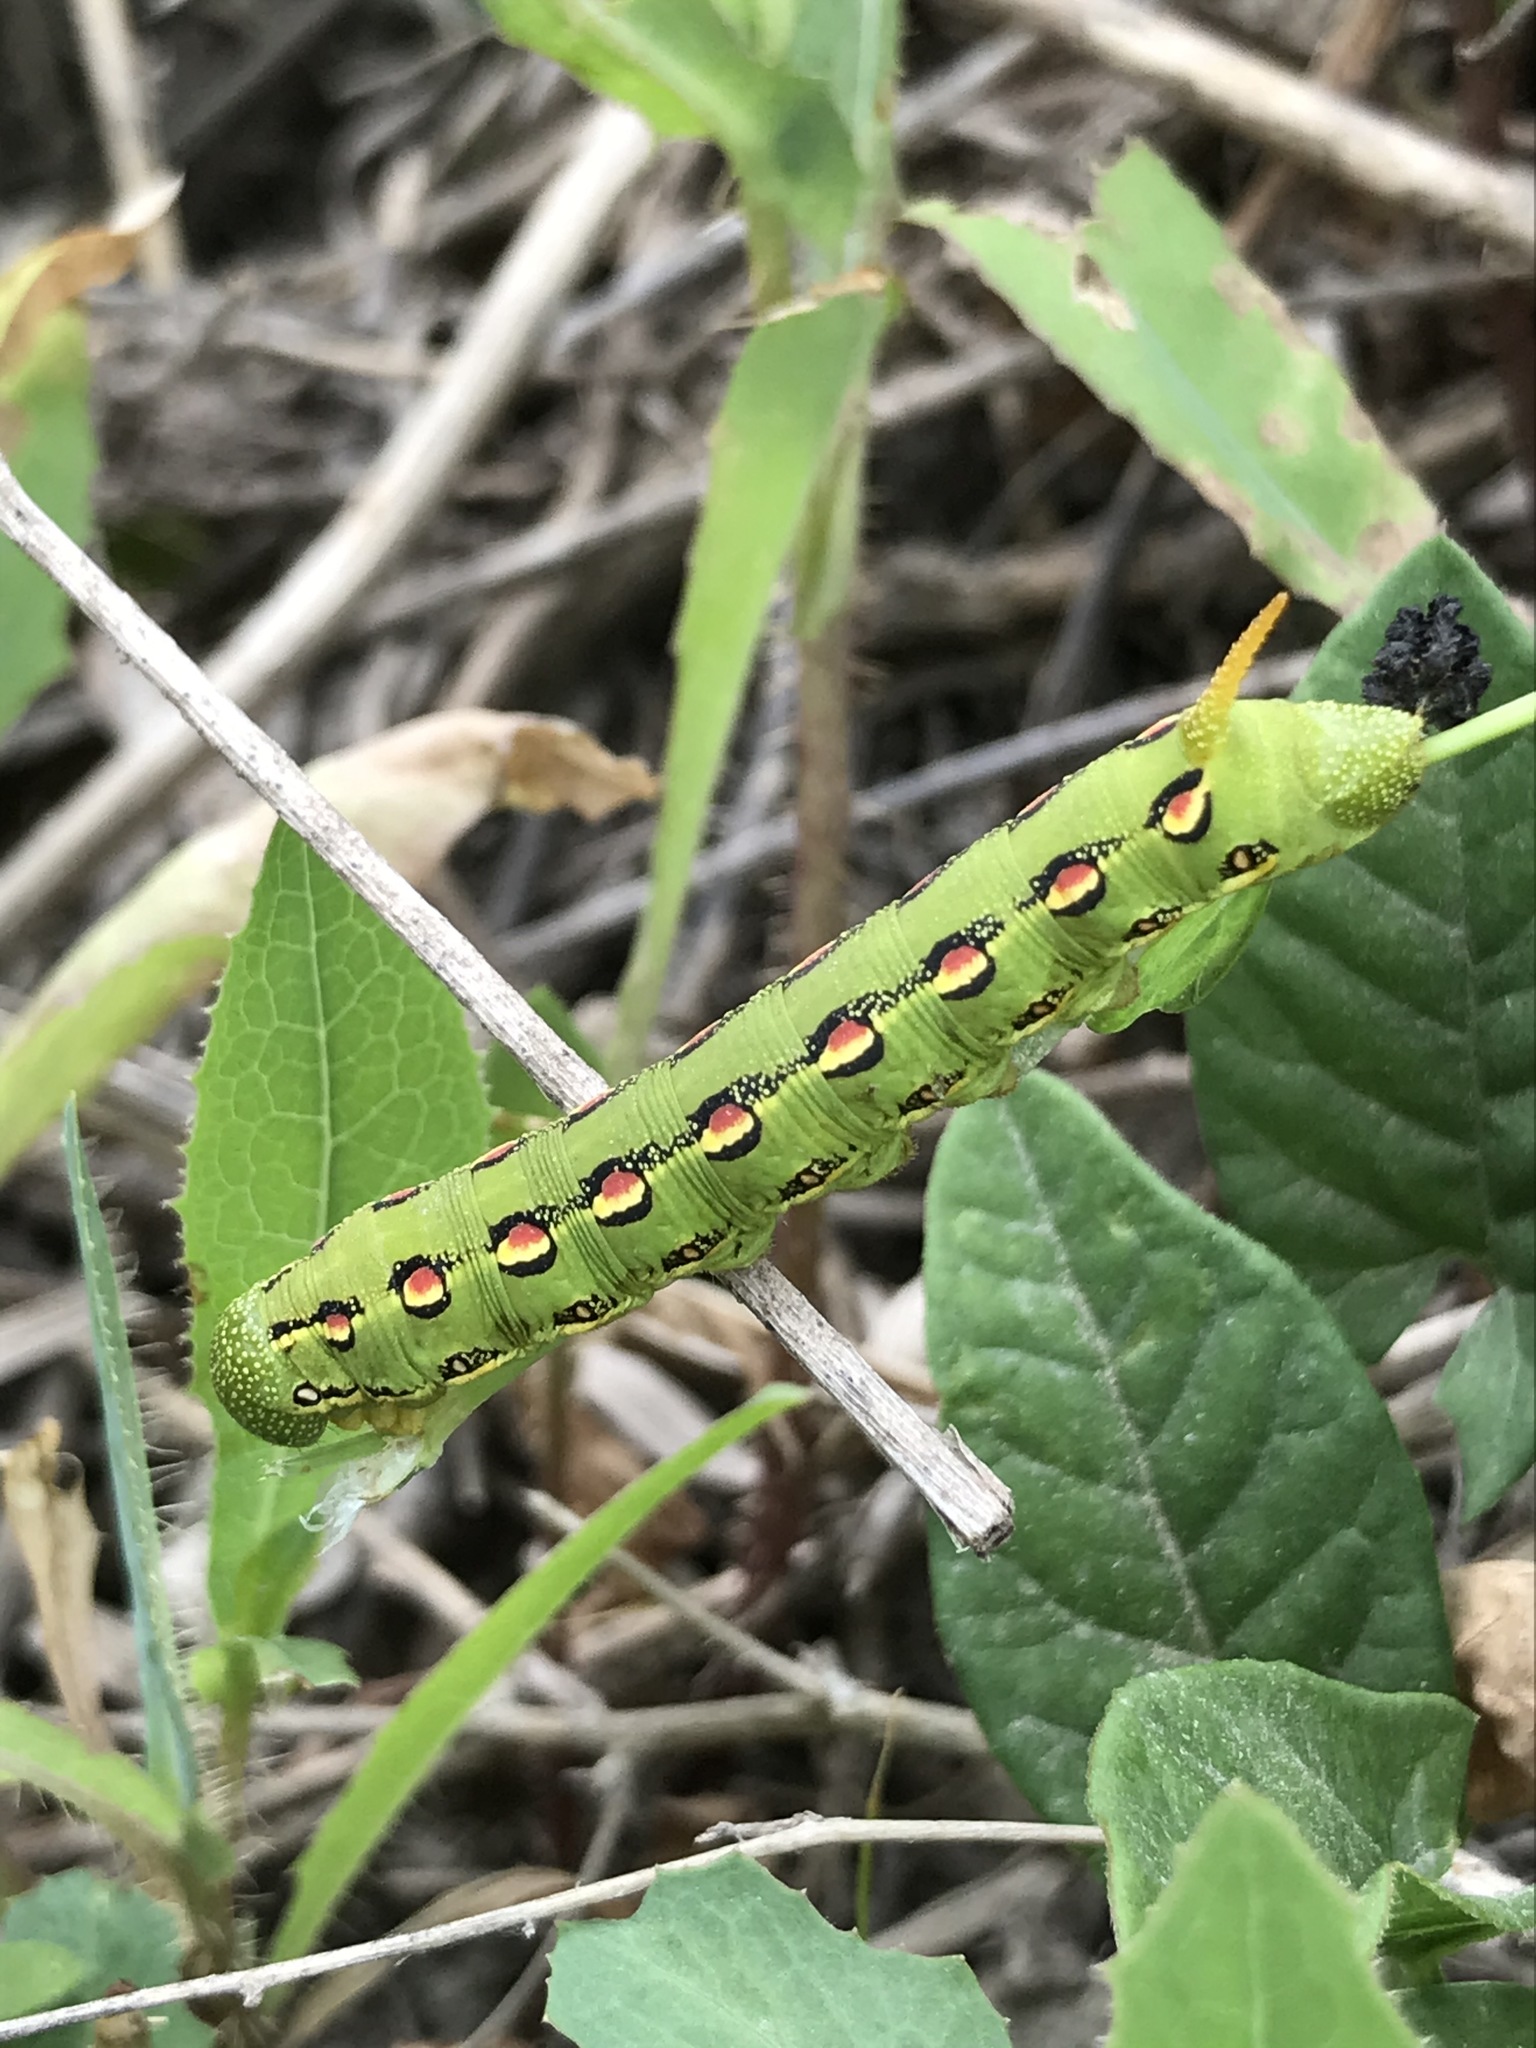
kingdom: Animalia
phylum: Arthropoda
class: Insecta
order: Lepidoptera
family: Sphingidae
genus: Hyles
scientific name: Hyles lineata
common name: White-lined sphinx
